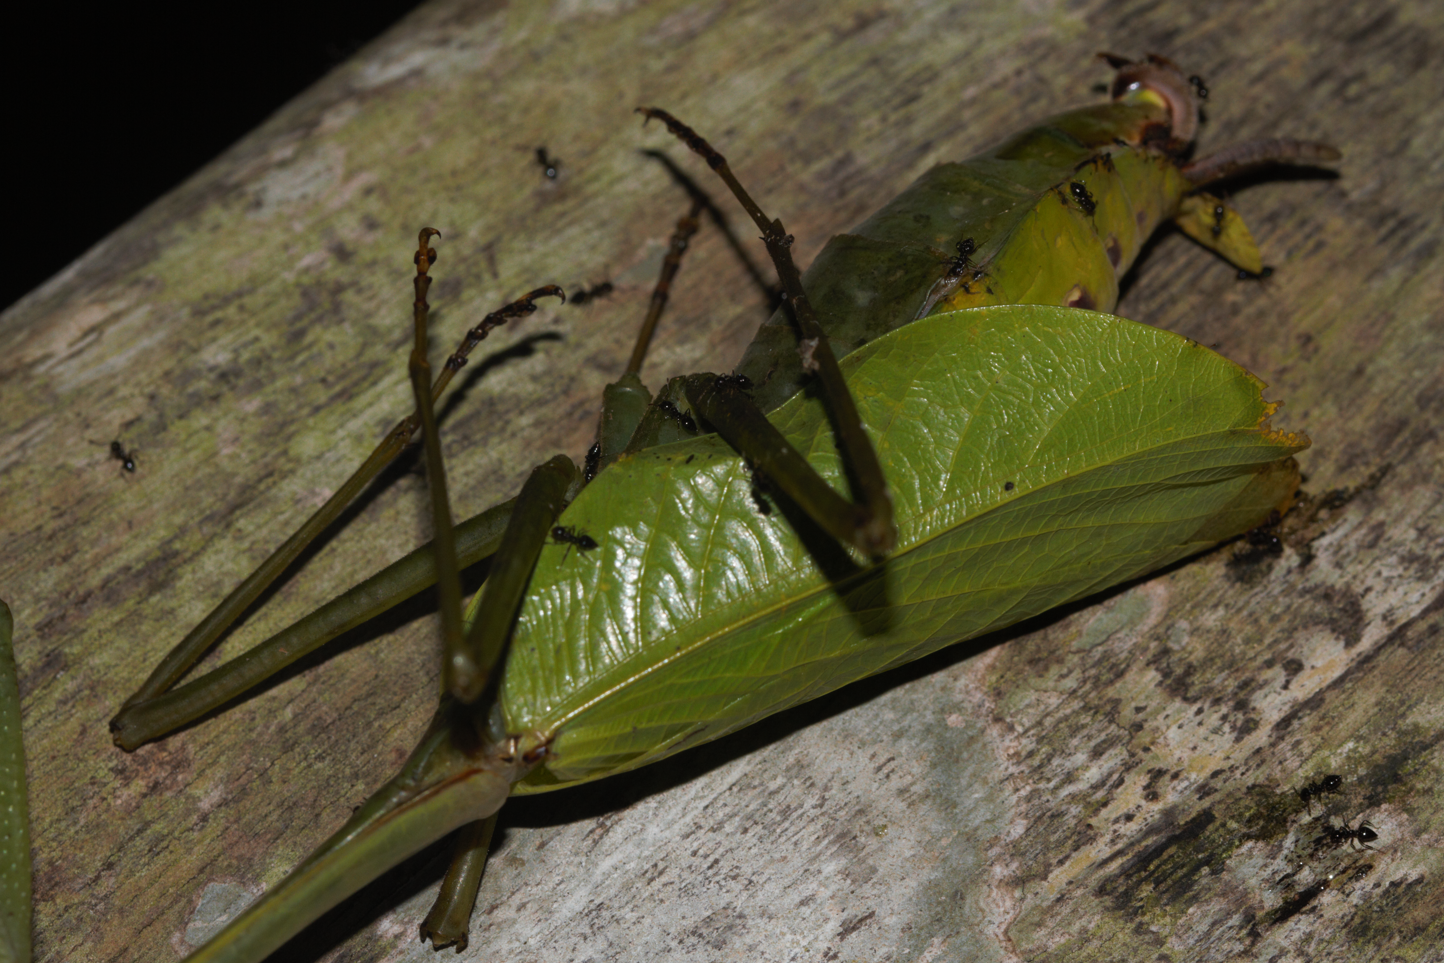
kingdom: Animalia
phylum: Arthropoda
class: Insecta
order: Mantodea
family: Photinaidae
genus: Macromantis
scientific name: Macromantis ovalifolia
